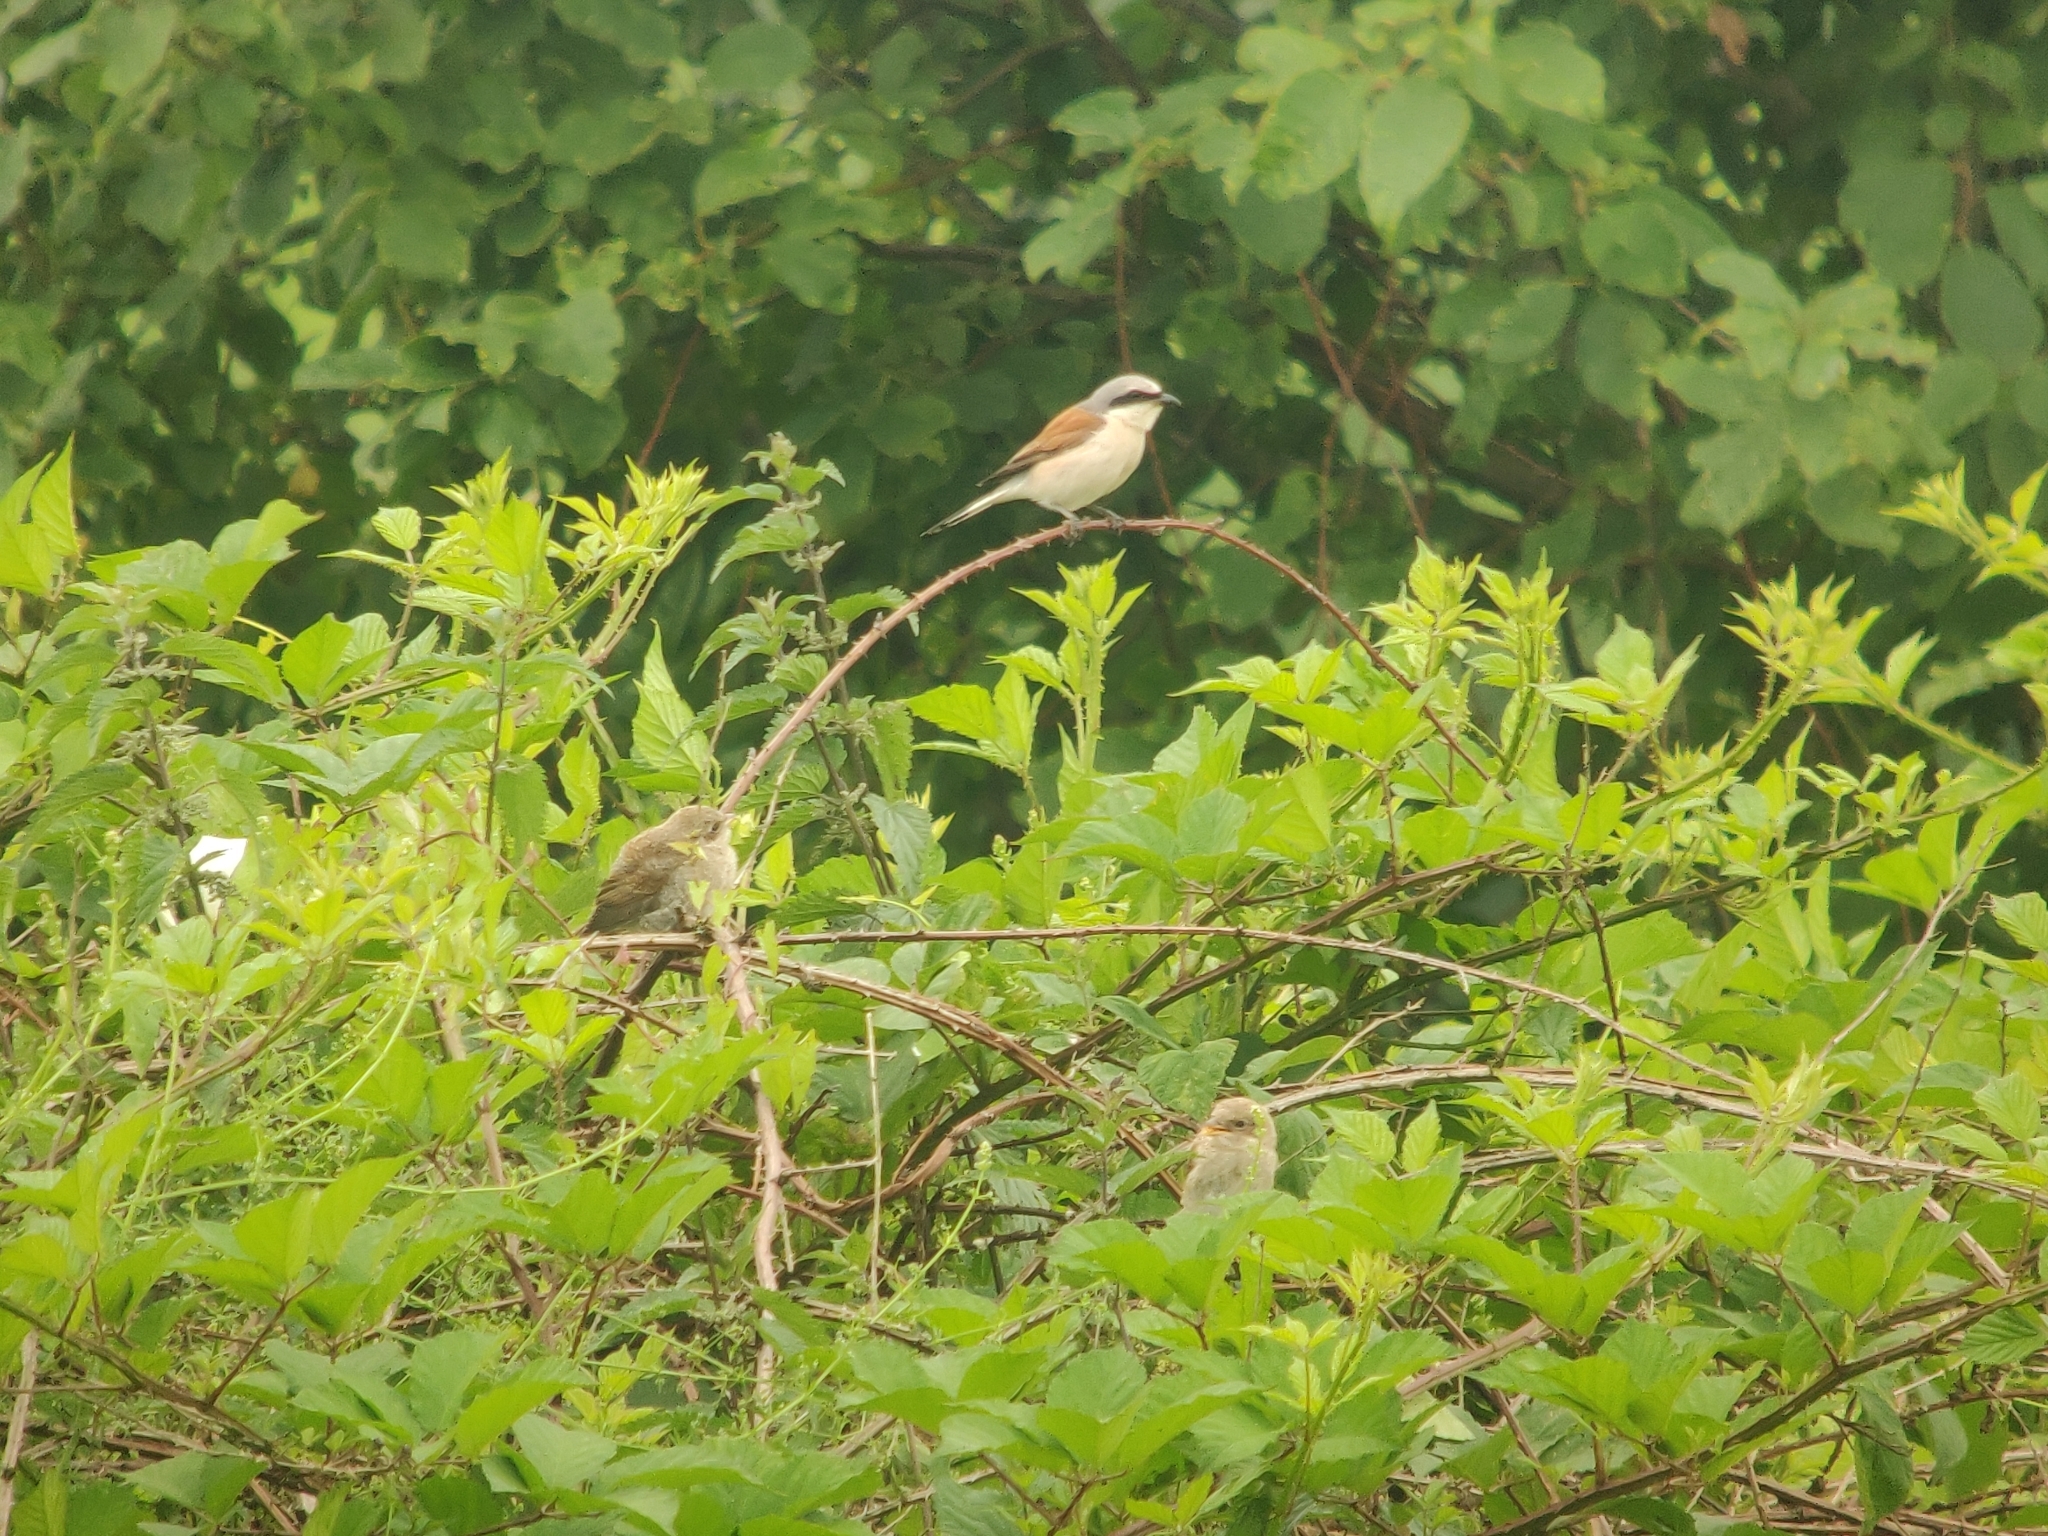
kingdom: Animalia
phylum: Chordata
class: Aves
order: Passeriformes
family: Laniidae
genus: Lanius
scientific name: Lanius collurio
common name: Red-backed shrike
